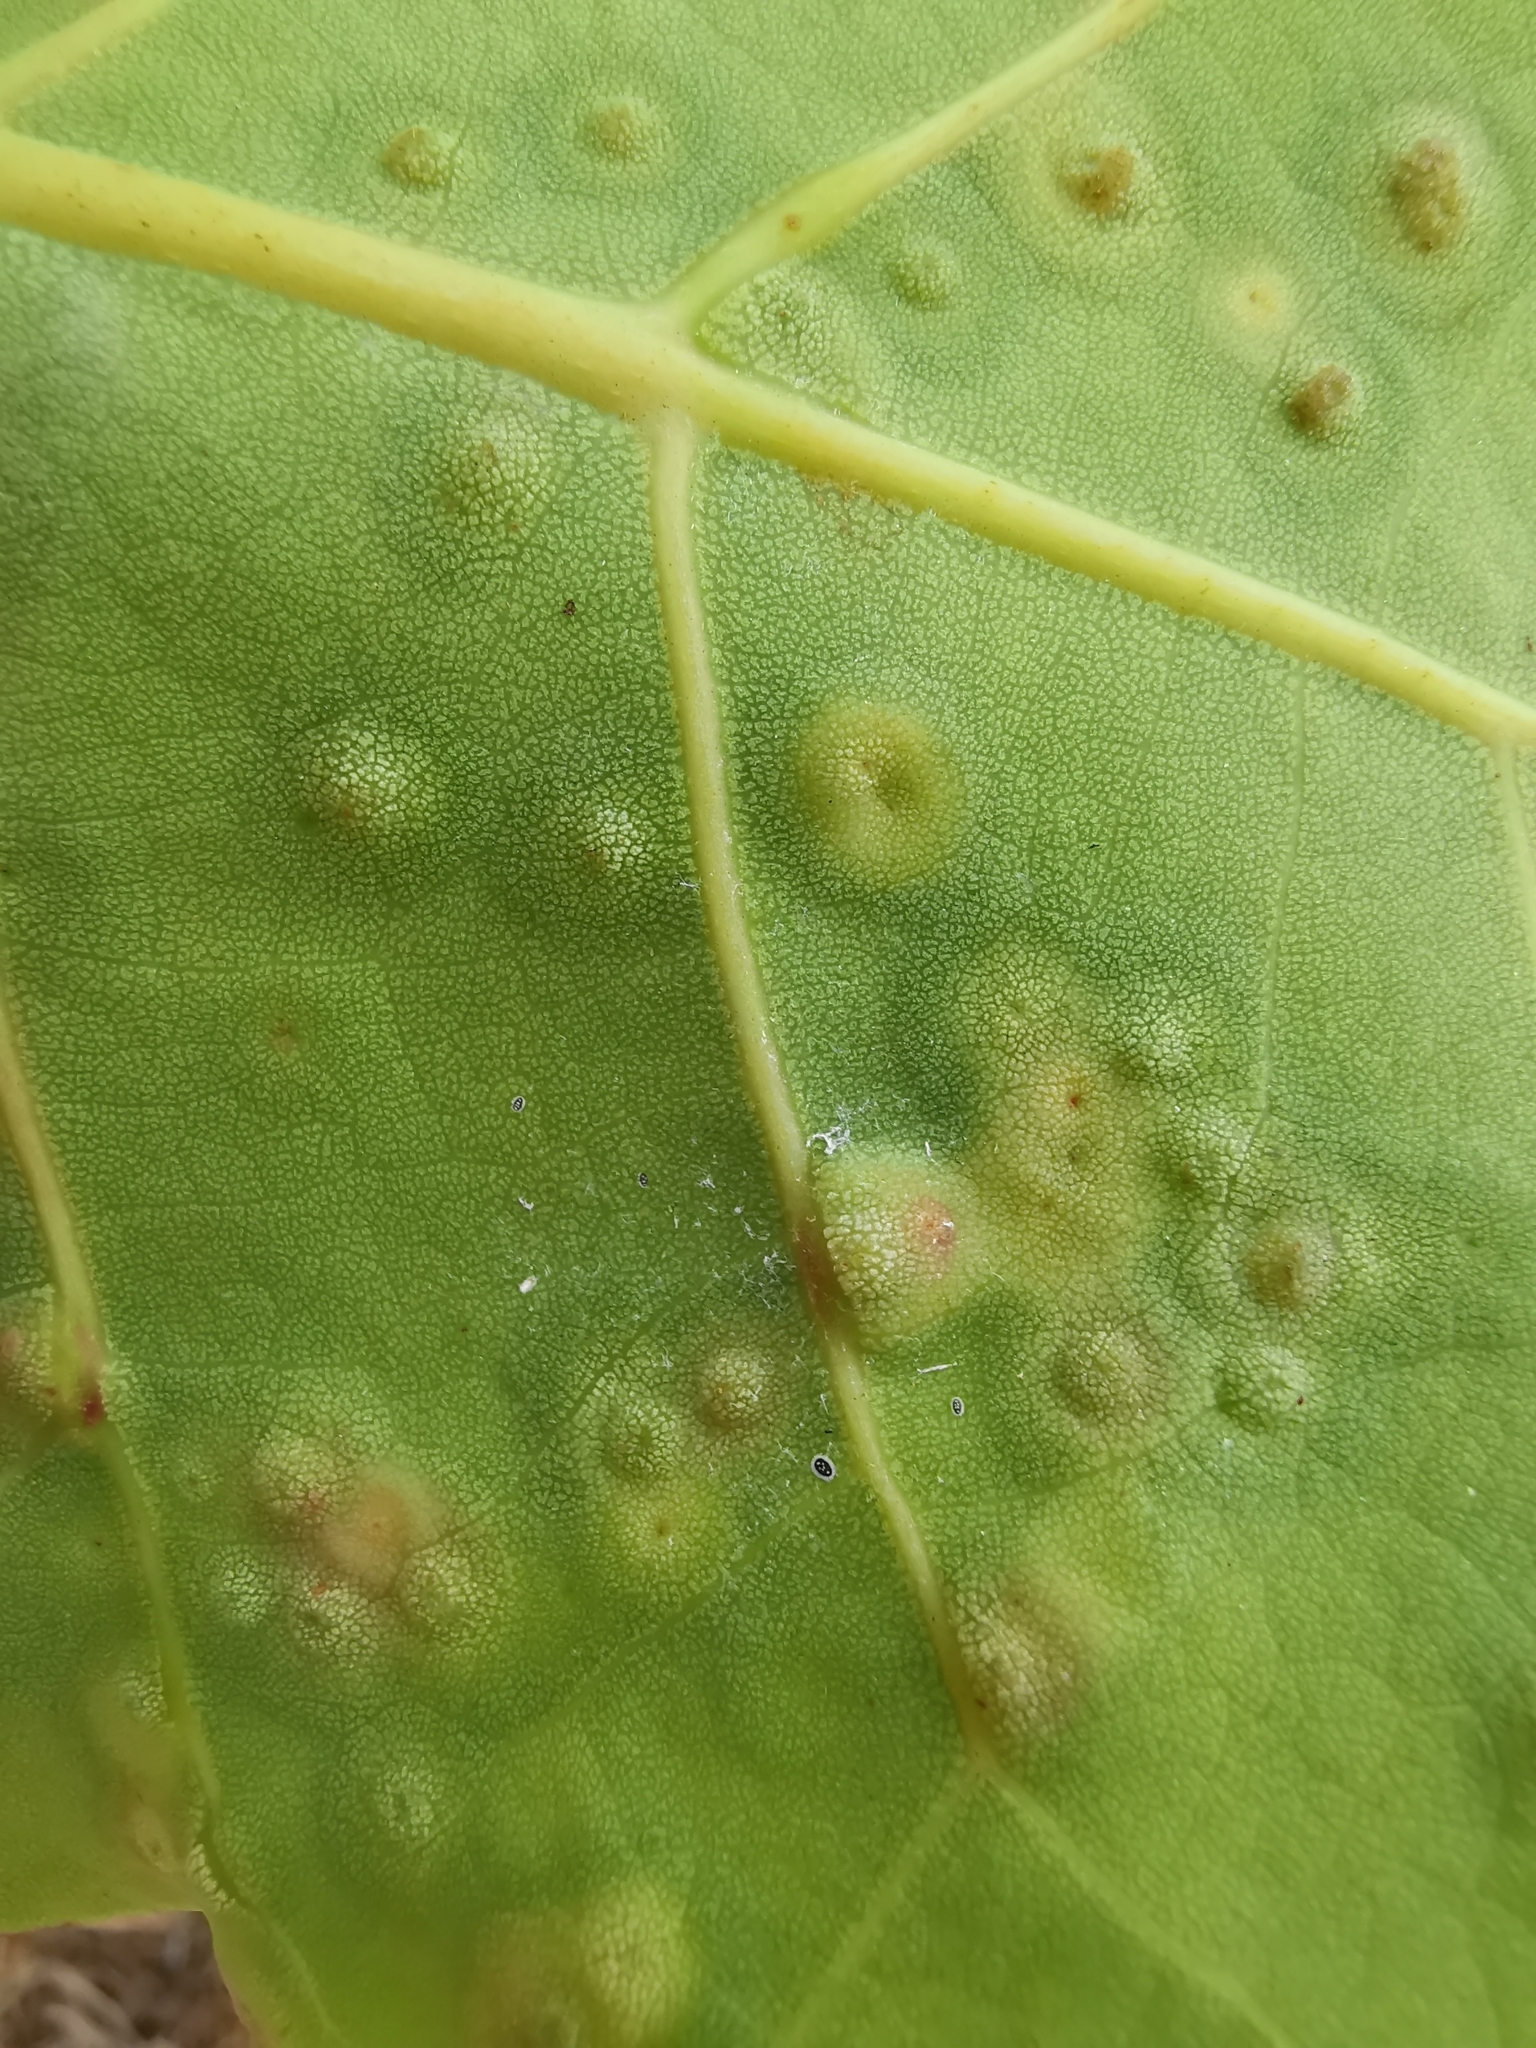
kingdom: Animalia
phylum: Arthropoda
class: Insecta
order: Diptera
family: Cecidomyiidae
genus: Ctenodactylomyia
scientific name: Ctenodactylomyia watsoni
